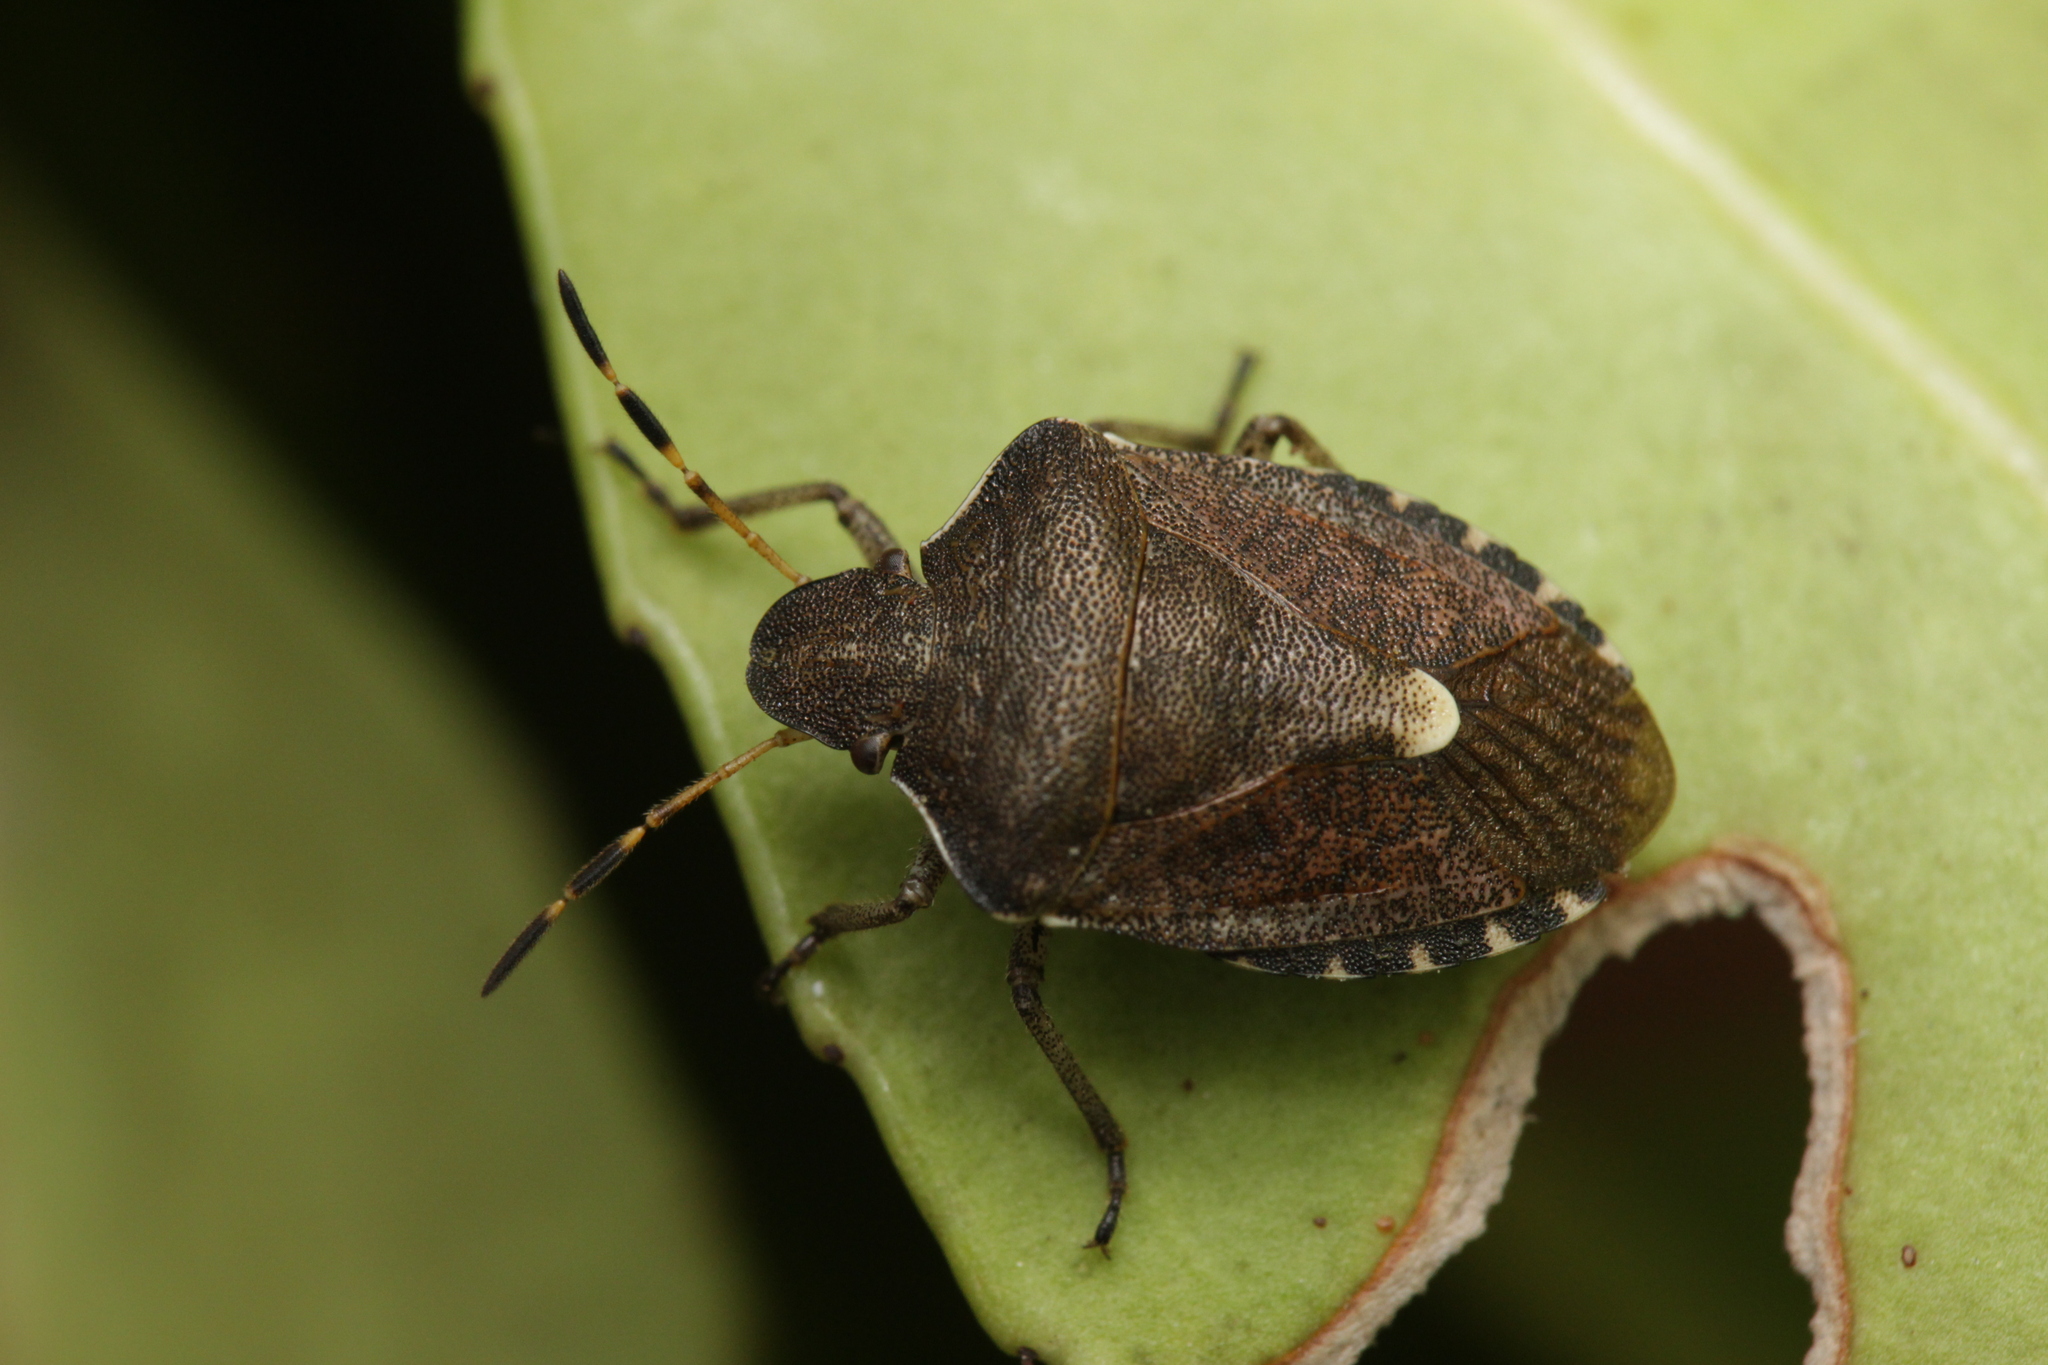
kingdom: Animalia
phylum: Arthropoda
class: Insecta
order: Hemiptera
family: Pentatomidae
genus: Holcostethus
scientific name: Holcostethus strictus
